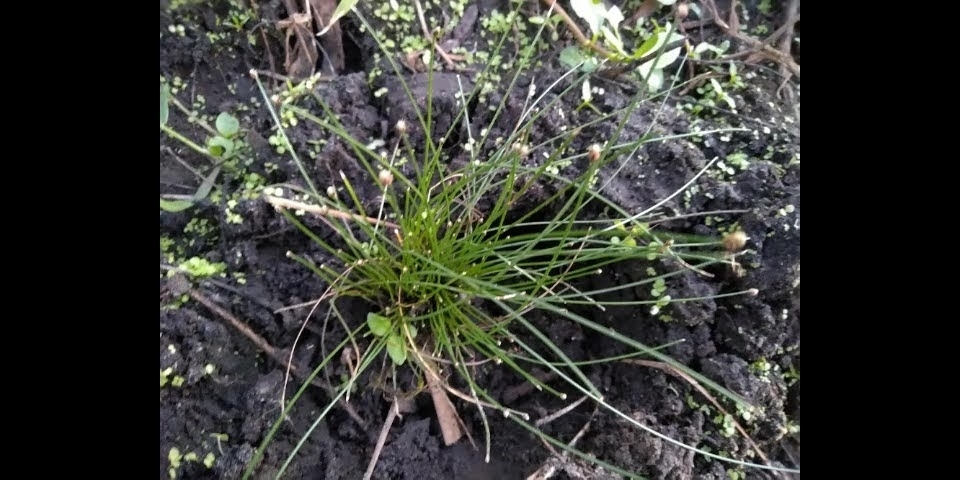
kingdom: Plantae
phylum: Tracheophyta
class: Liliopsida
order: Poales
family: Cyperaceae
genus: Isolepis
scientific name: Isolepis cernua
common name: Slender club-rush
